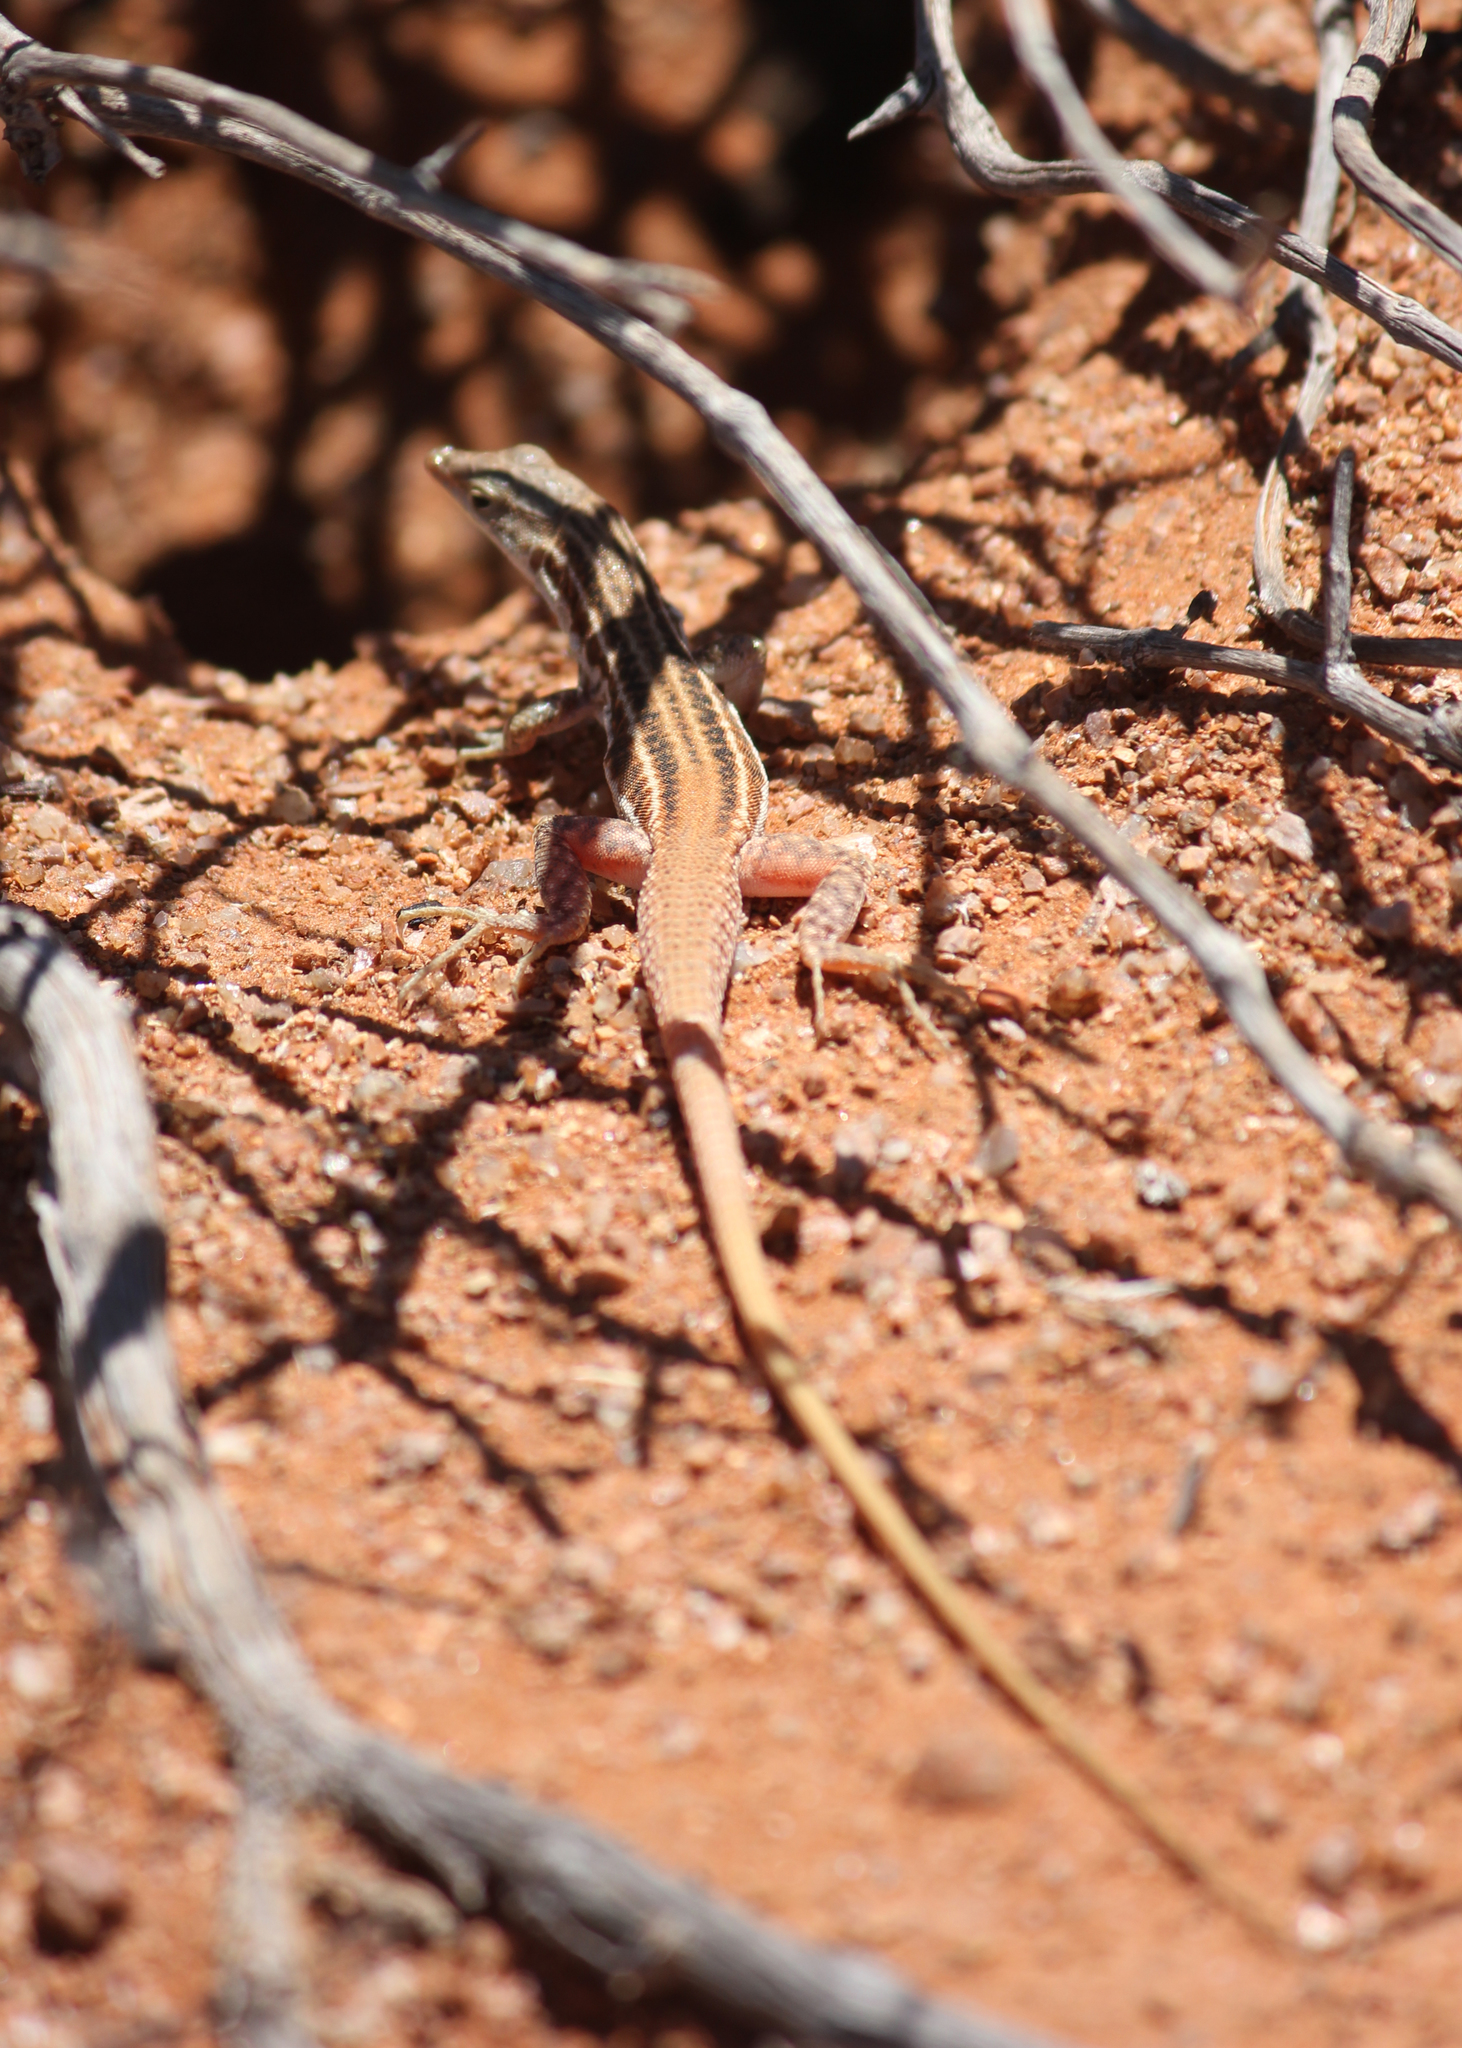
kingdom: Animalia
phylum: Chordata
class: Squamata
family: Lacertidae
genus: Pedioplanis
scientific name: Pedioplanis namaquensis
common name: Namaqua sand lizard
